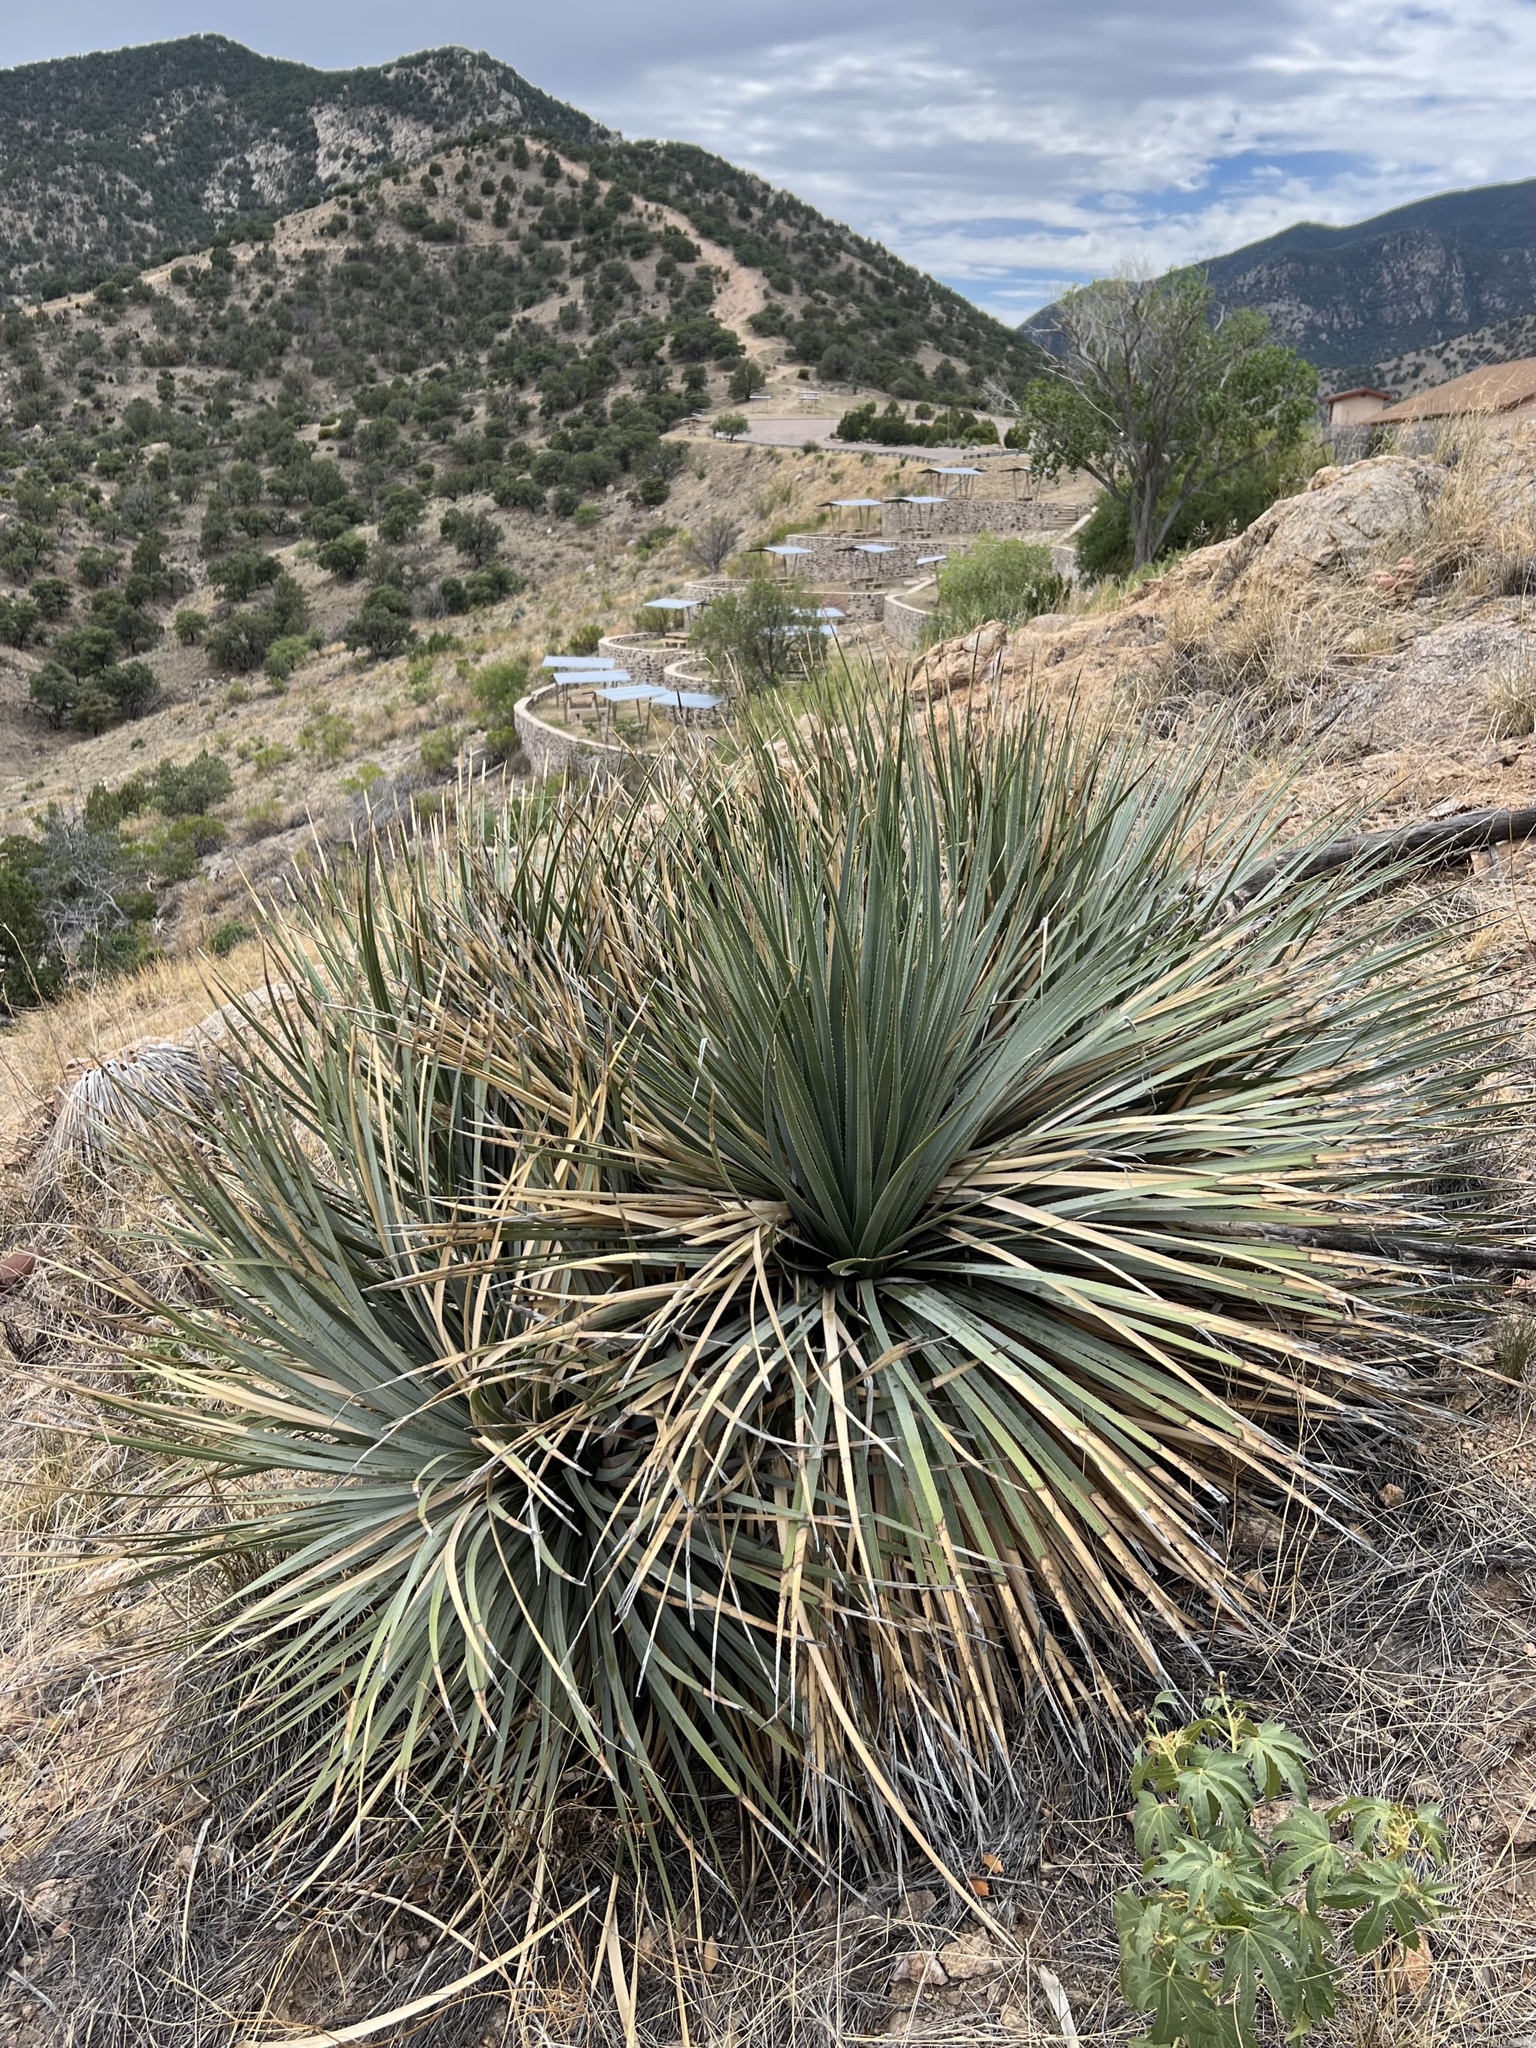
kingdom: Plantae
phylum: Tracheophyta
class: Liliopsida
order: Asparagales
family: Asparagaceae
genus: Dasylirion
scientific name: Dasylirion wheeleri
